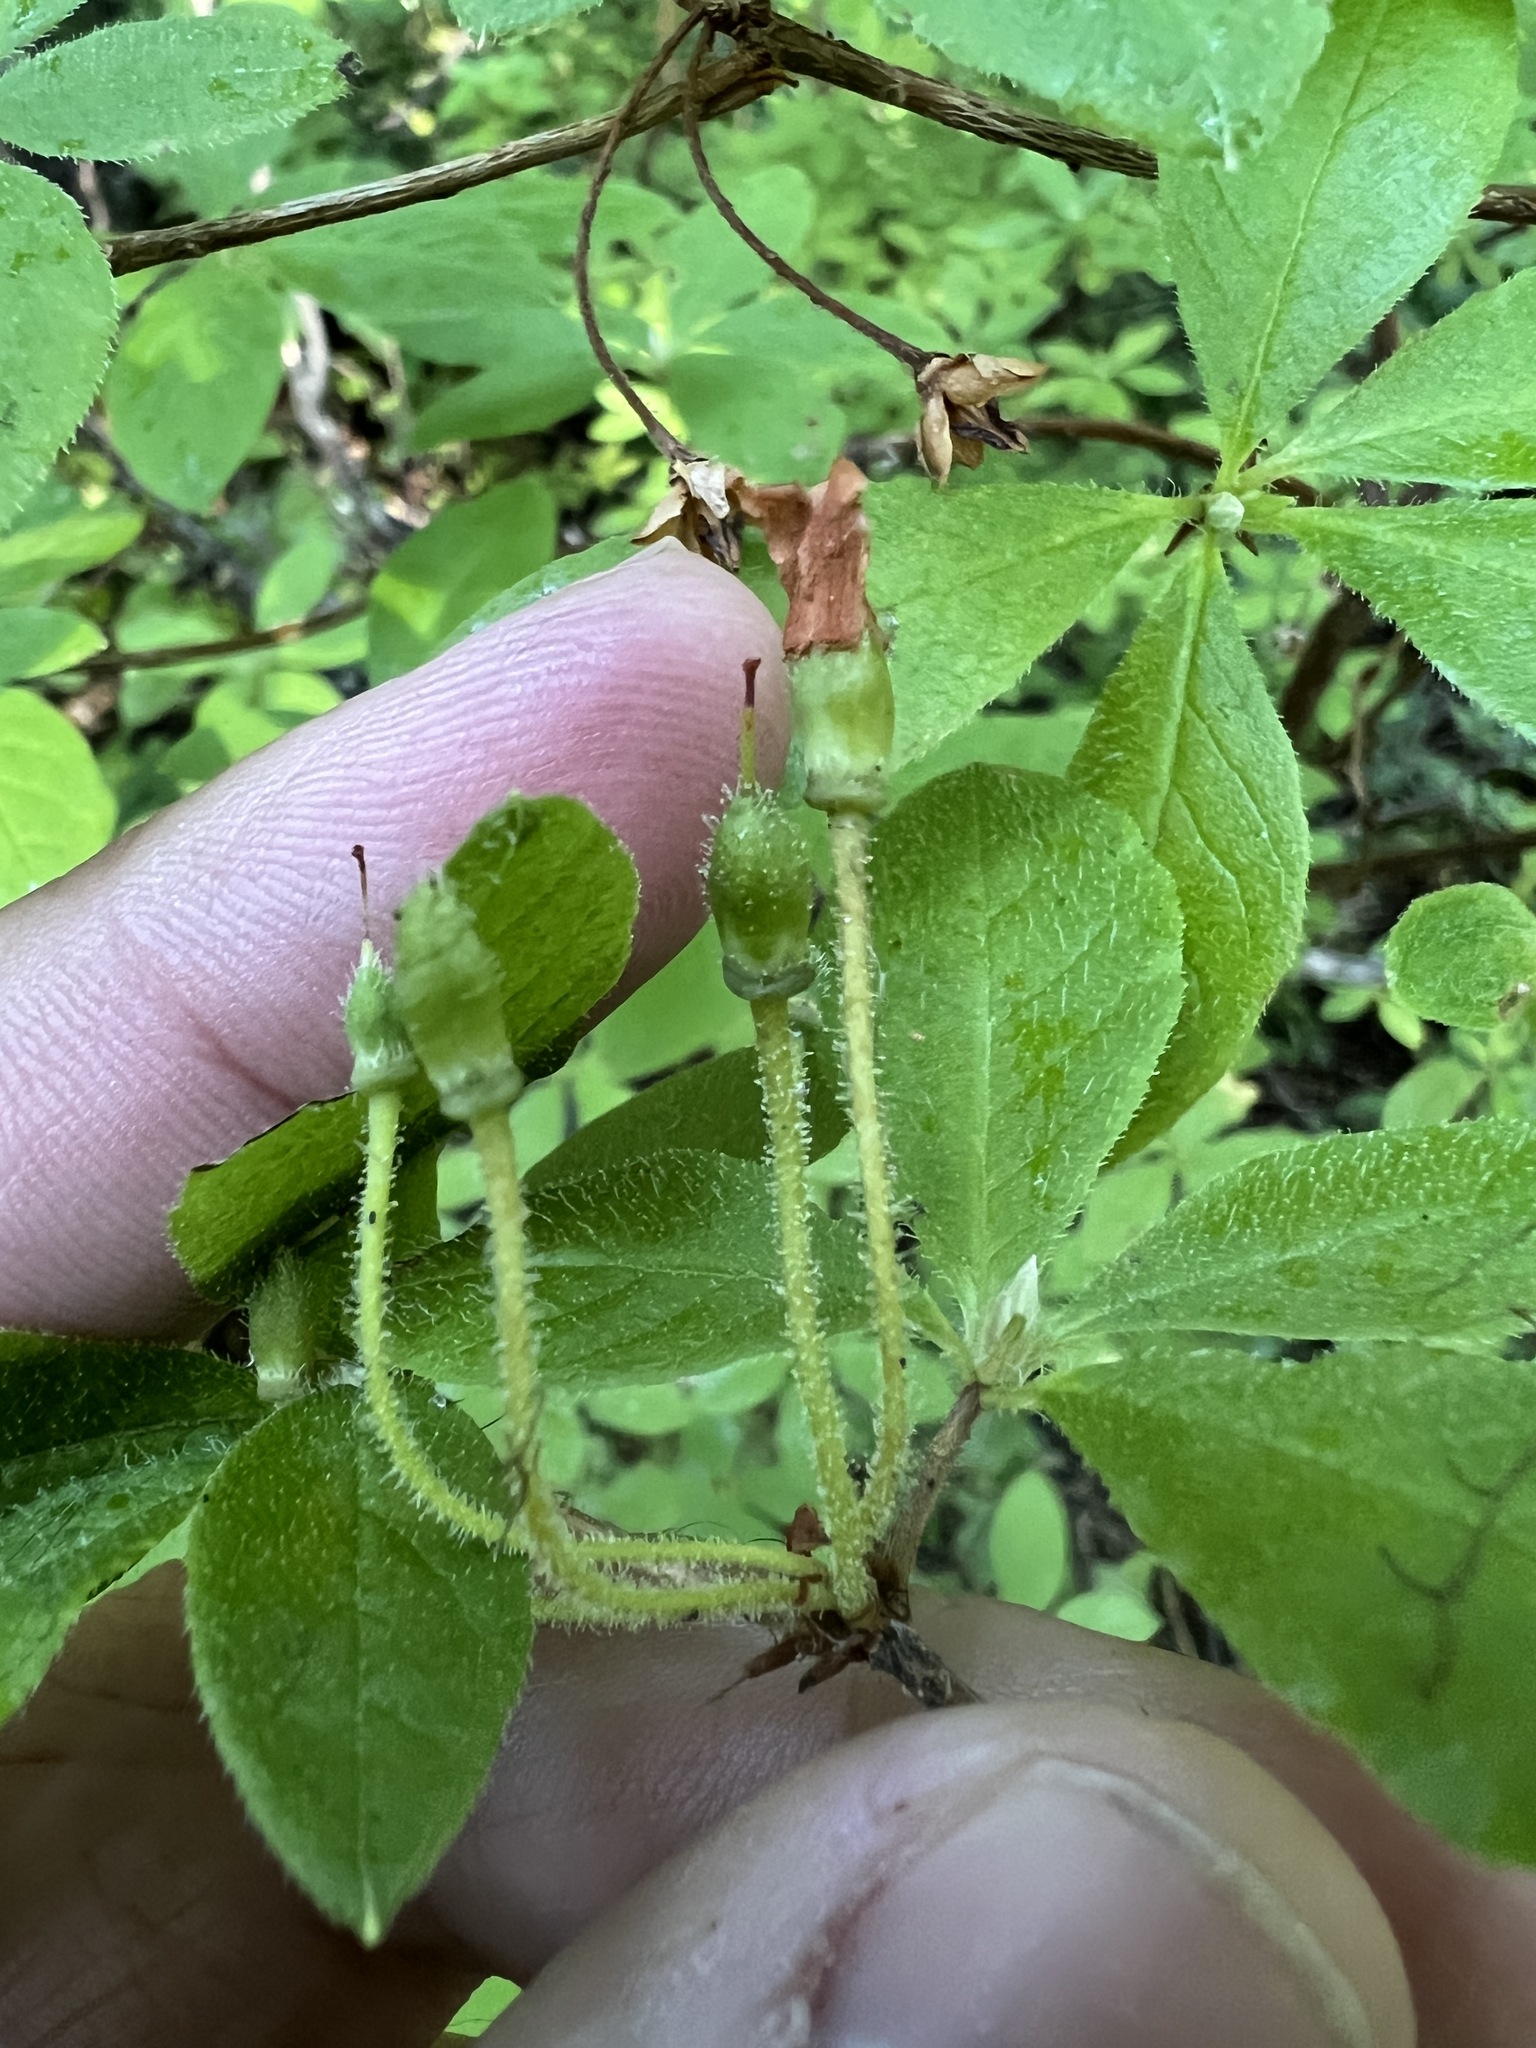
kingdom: Plantae
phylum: Tracheophyta
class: Magnoliopsida
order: Ericales
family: Ericaceae
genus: Rhododendron
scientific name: Rhododendron menziesii
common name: Pacific menziesia
